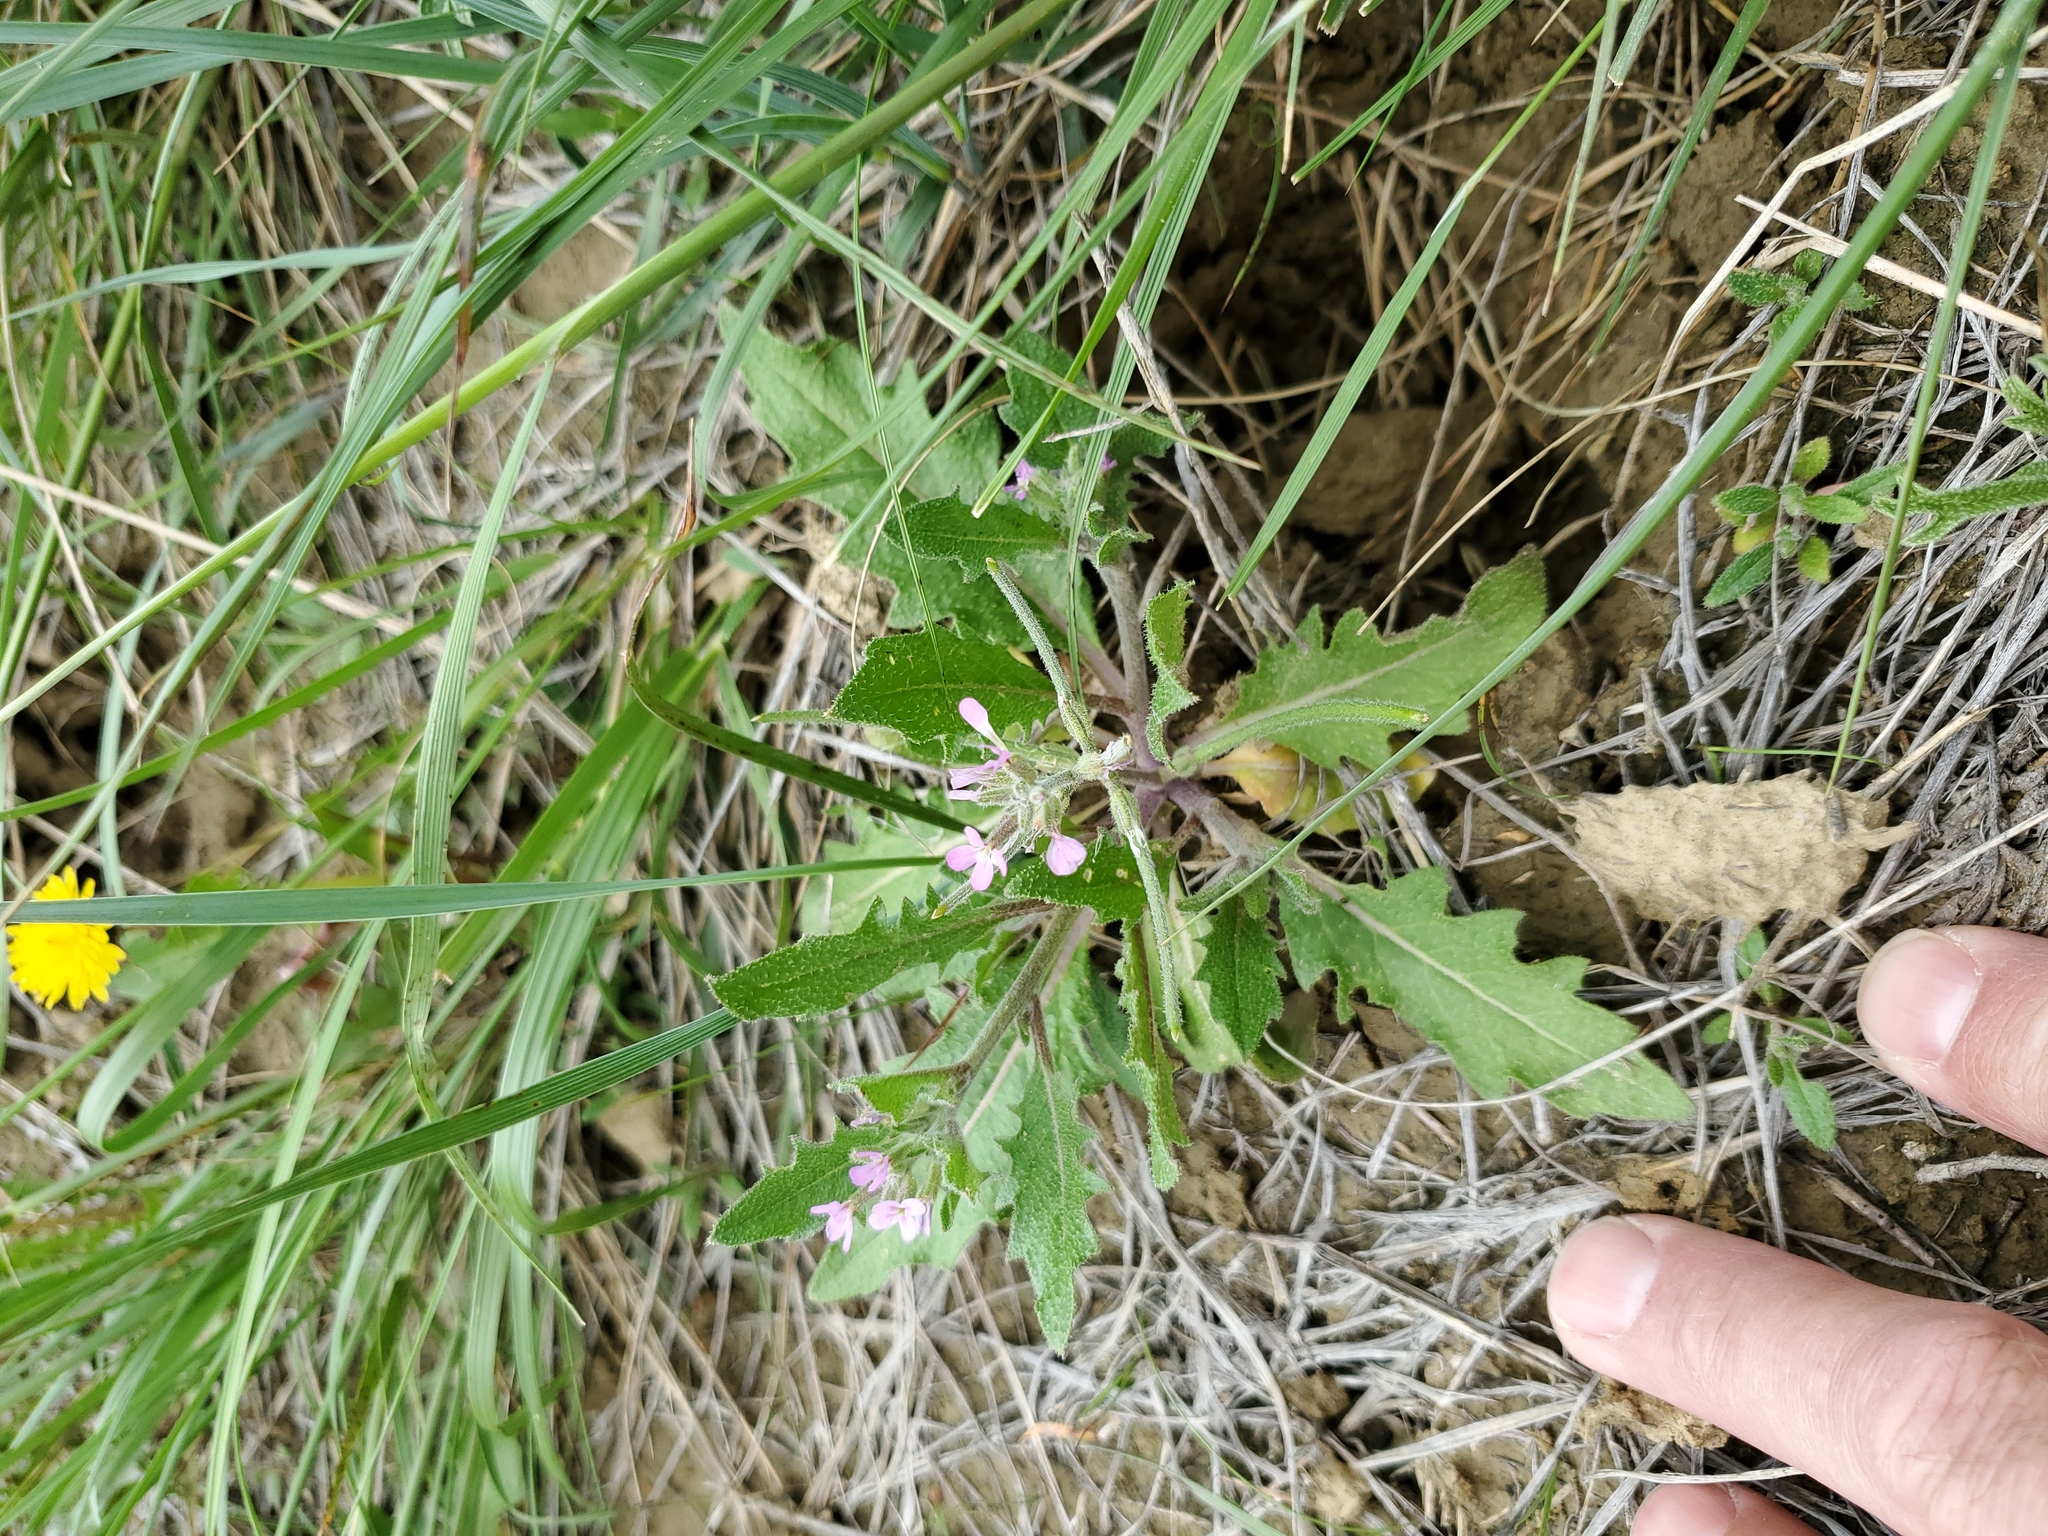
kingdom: Plantae
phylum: Tracheophyta
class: Magnoliopsida
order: Brassicales
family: Brassicaceae
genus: Strigosella
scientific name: Strigosella africana
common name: African mustard
